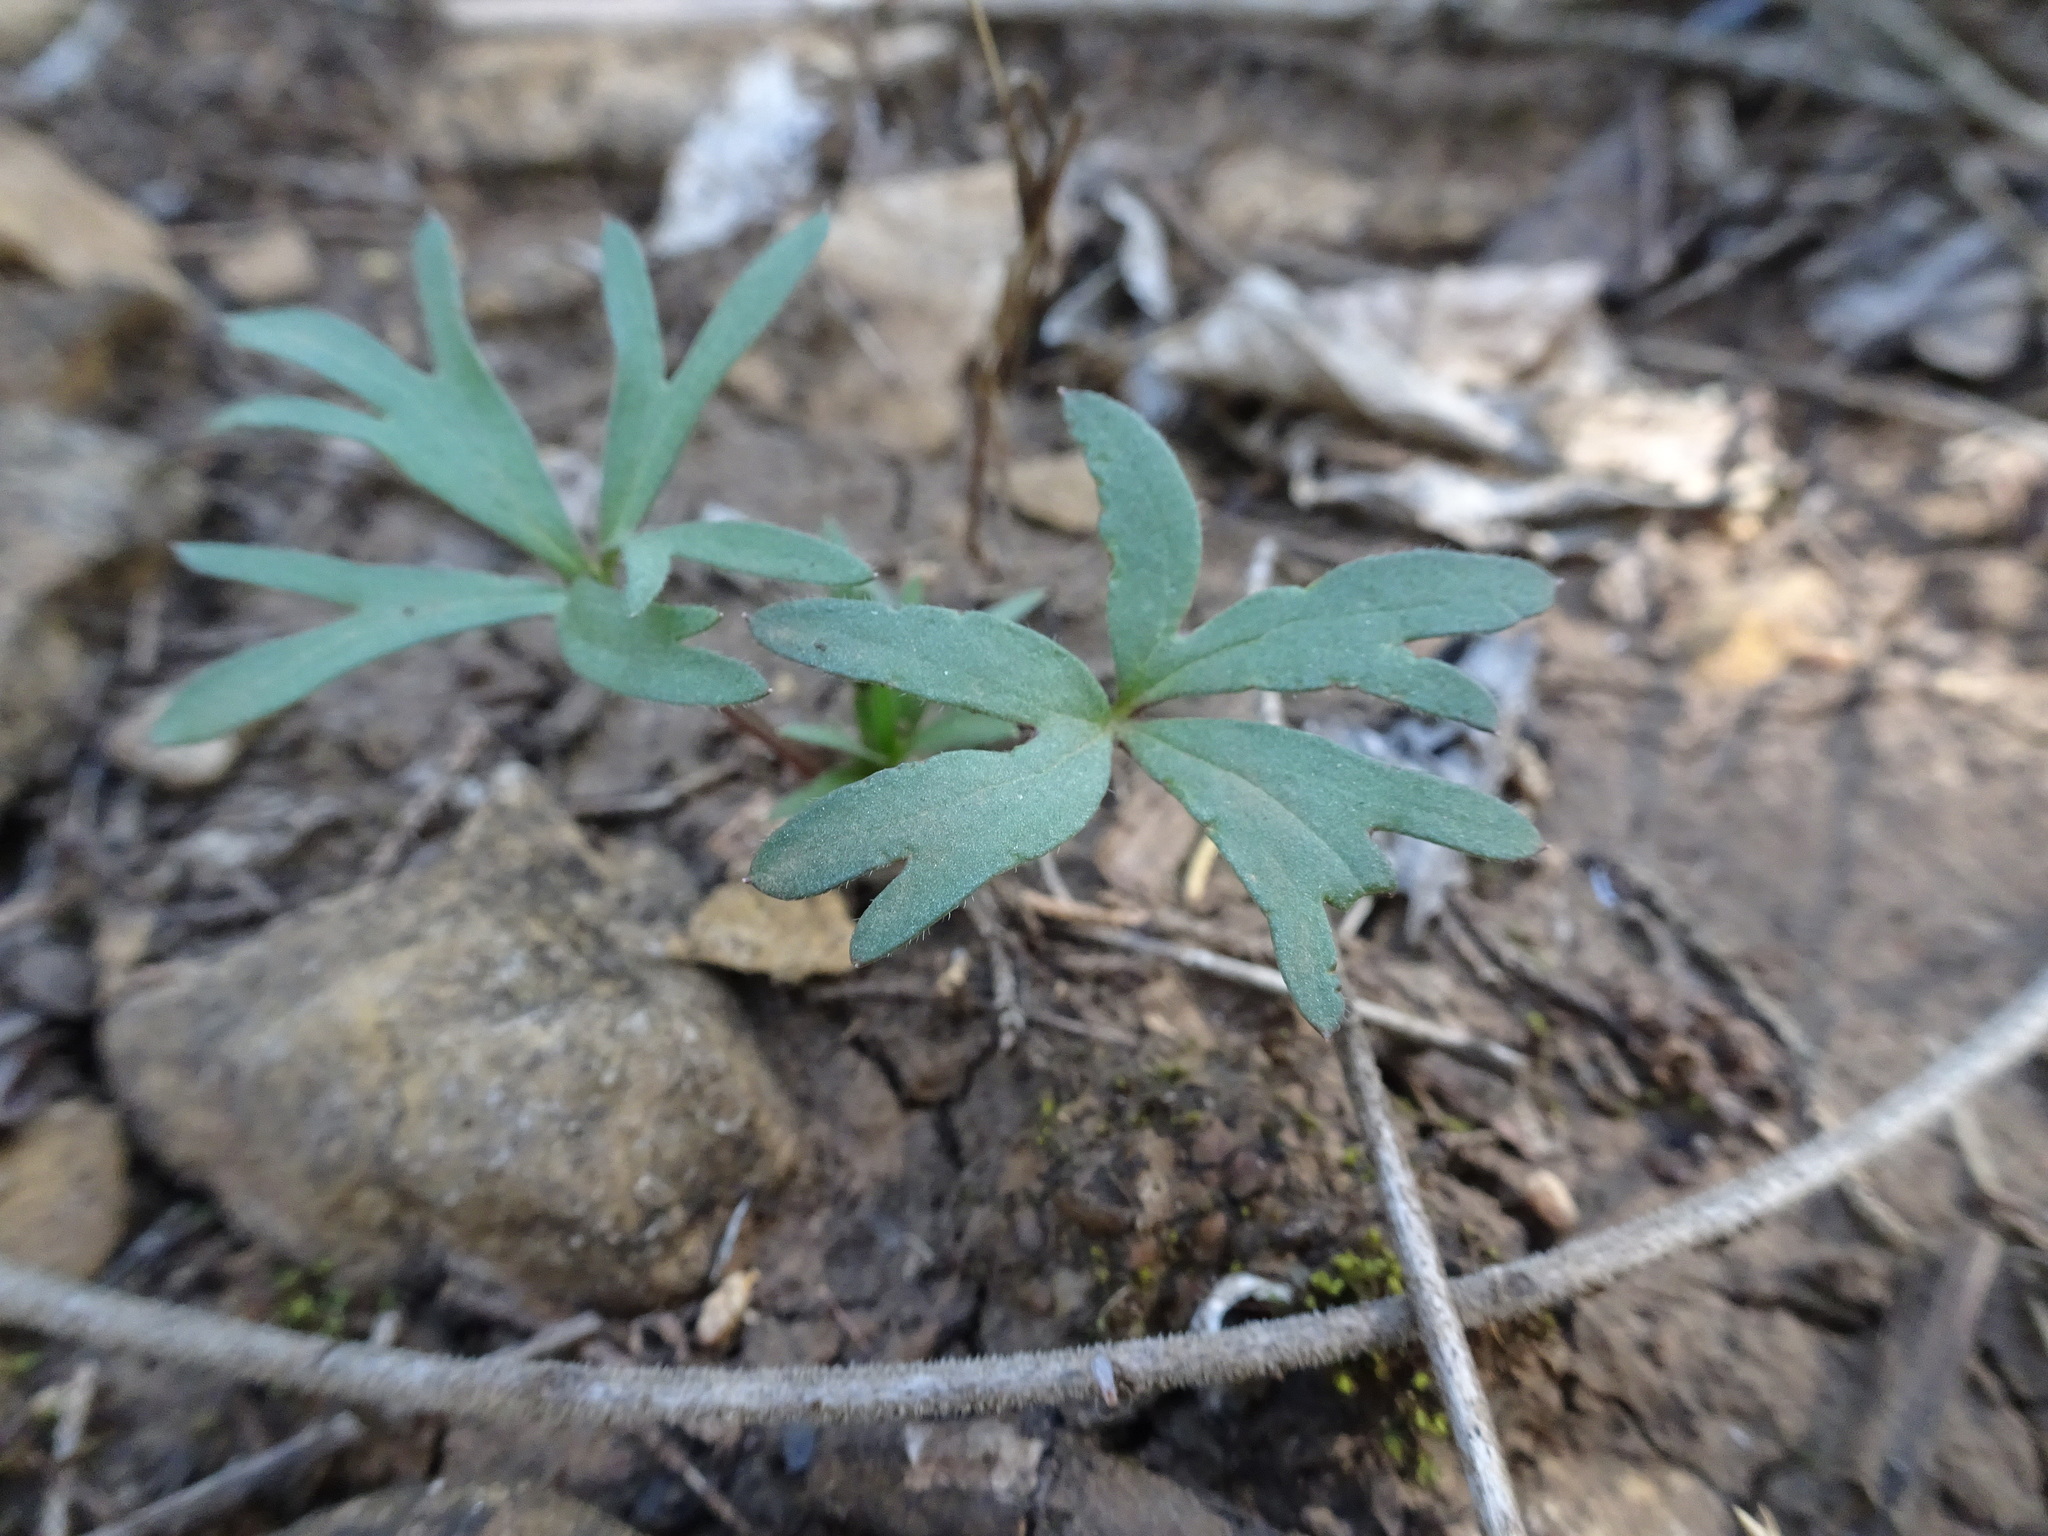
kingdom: Plantae
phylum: Tracheophyta
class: Magnoliopsida
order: Ranunculales
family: Ranunculaceae
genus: Delphinium
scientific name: Delphinium tricorne
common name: Dwarf larkspur
